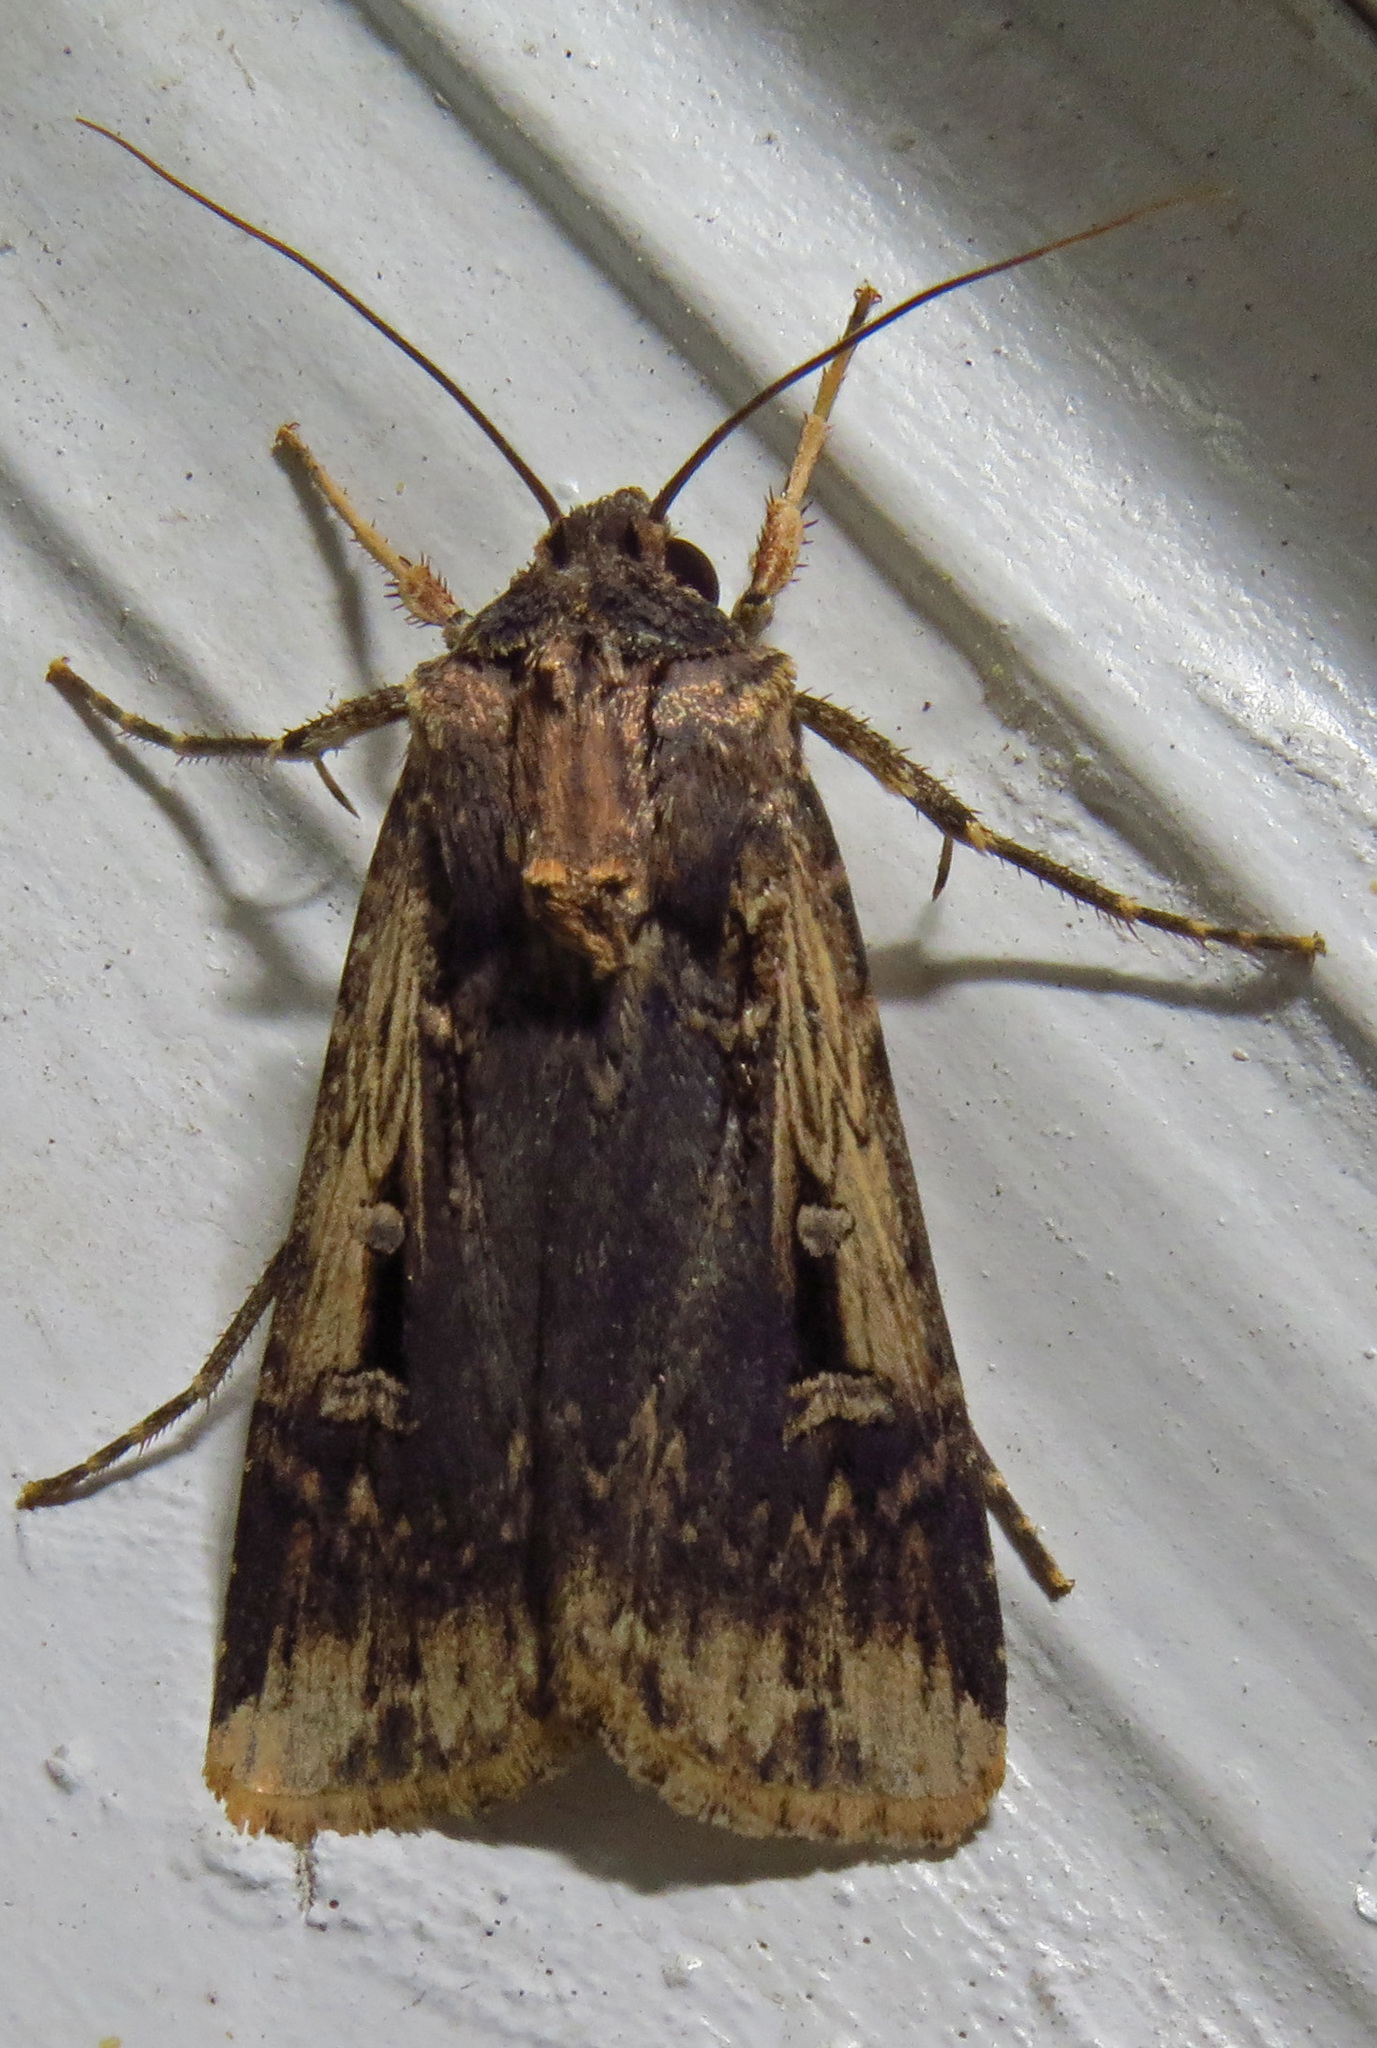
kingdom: Animalia
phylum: Arthropoda
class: Insecta
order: Lepidoptera
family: Noctuidae
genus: Feltia
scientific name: Feltia subterranea
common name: Granulate cutworm
